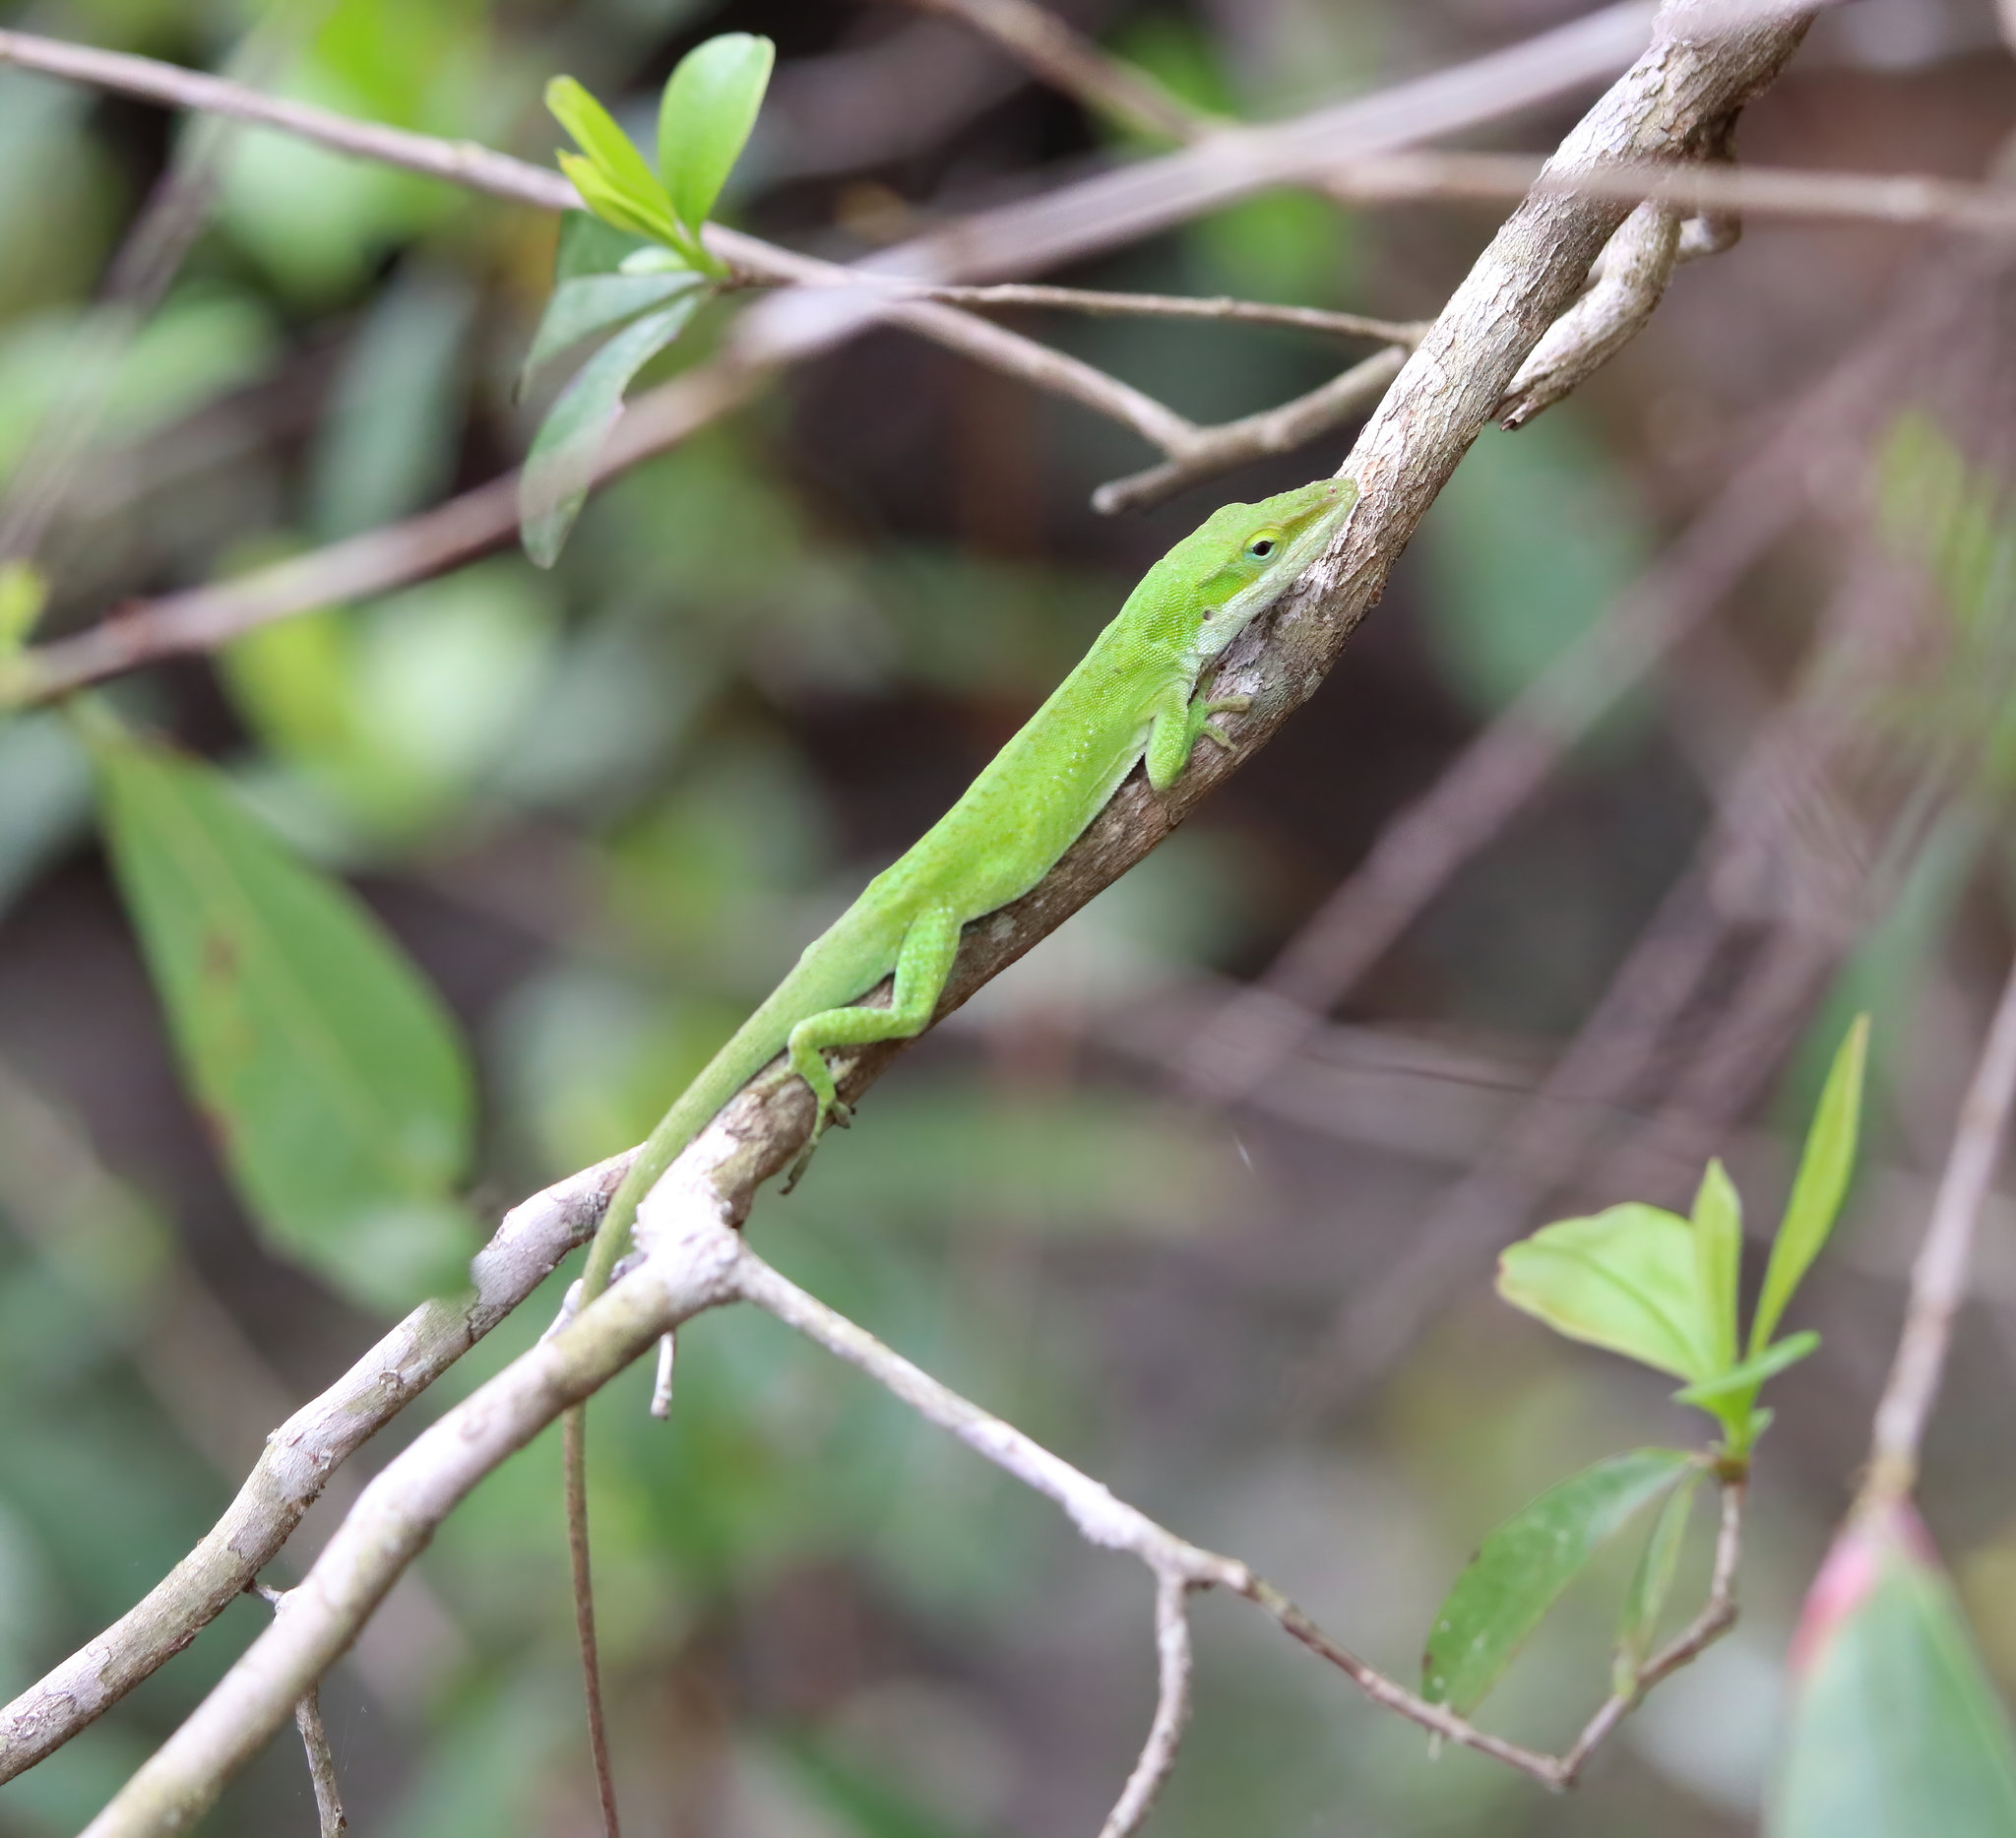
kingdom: Animalia
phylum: Chordata
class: Squamata
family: Dactyloidae
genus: Anolis
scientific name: Anolis carolinensis
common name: Green anole
